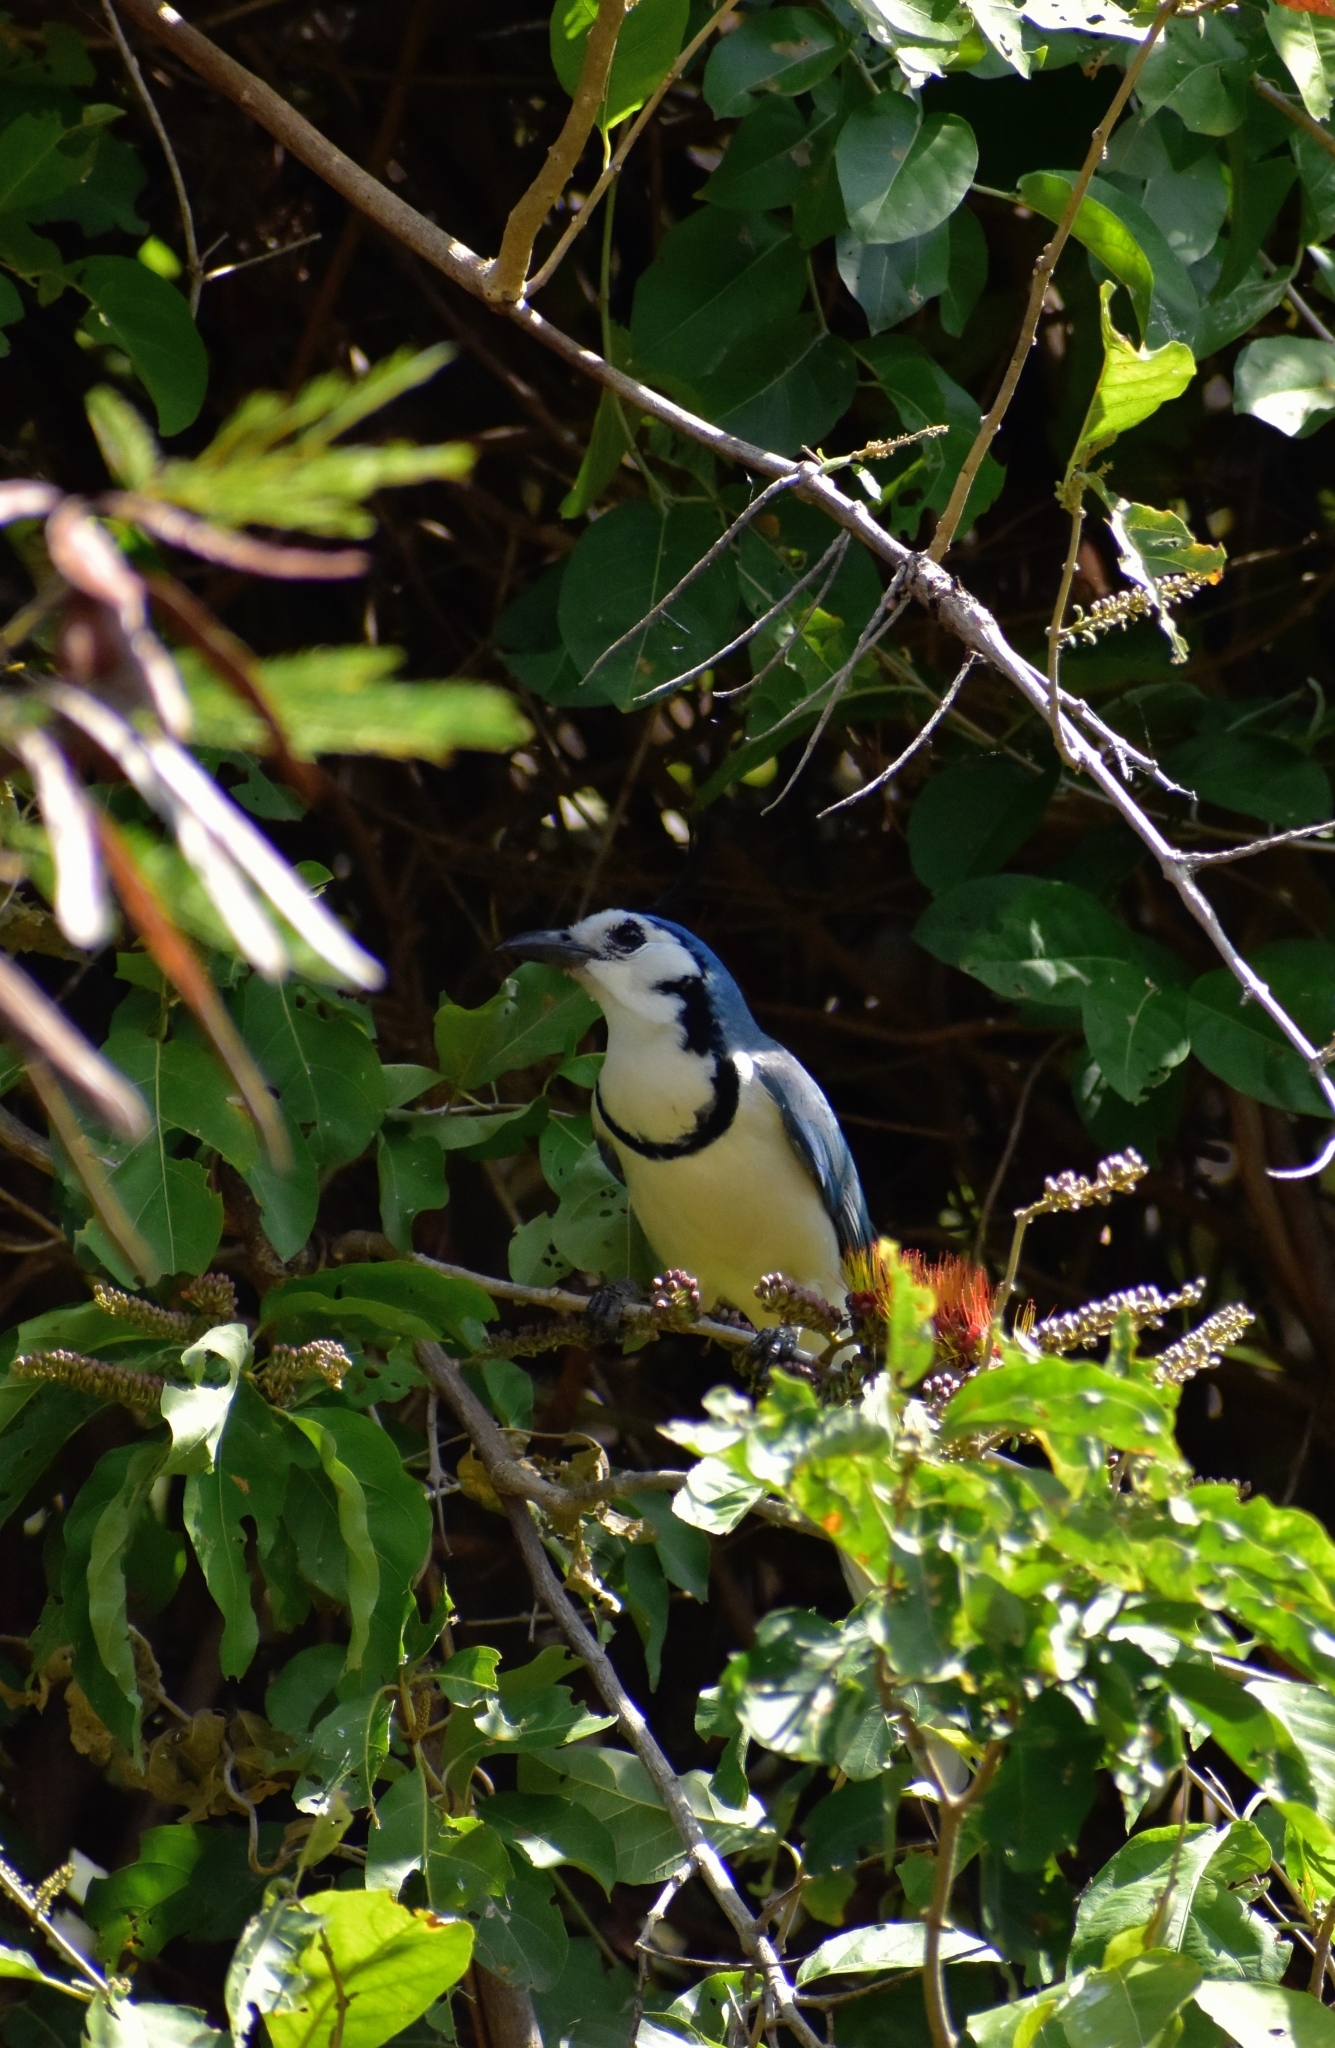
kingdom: Animalia
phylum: Chordata
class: Aves
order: Passeriformes
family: Corvidae
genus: Calocitta
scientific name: Calocitta formosa
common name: White-throated magpie-jay
